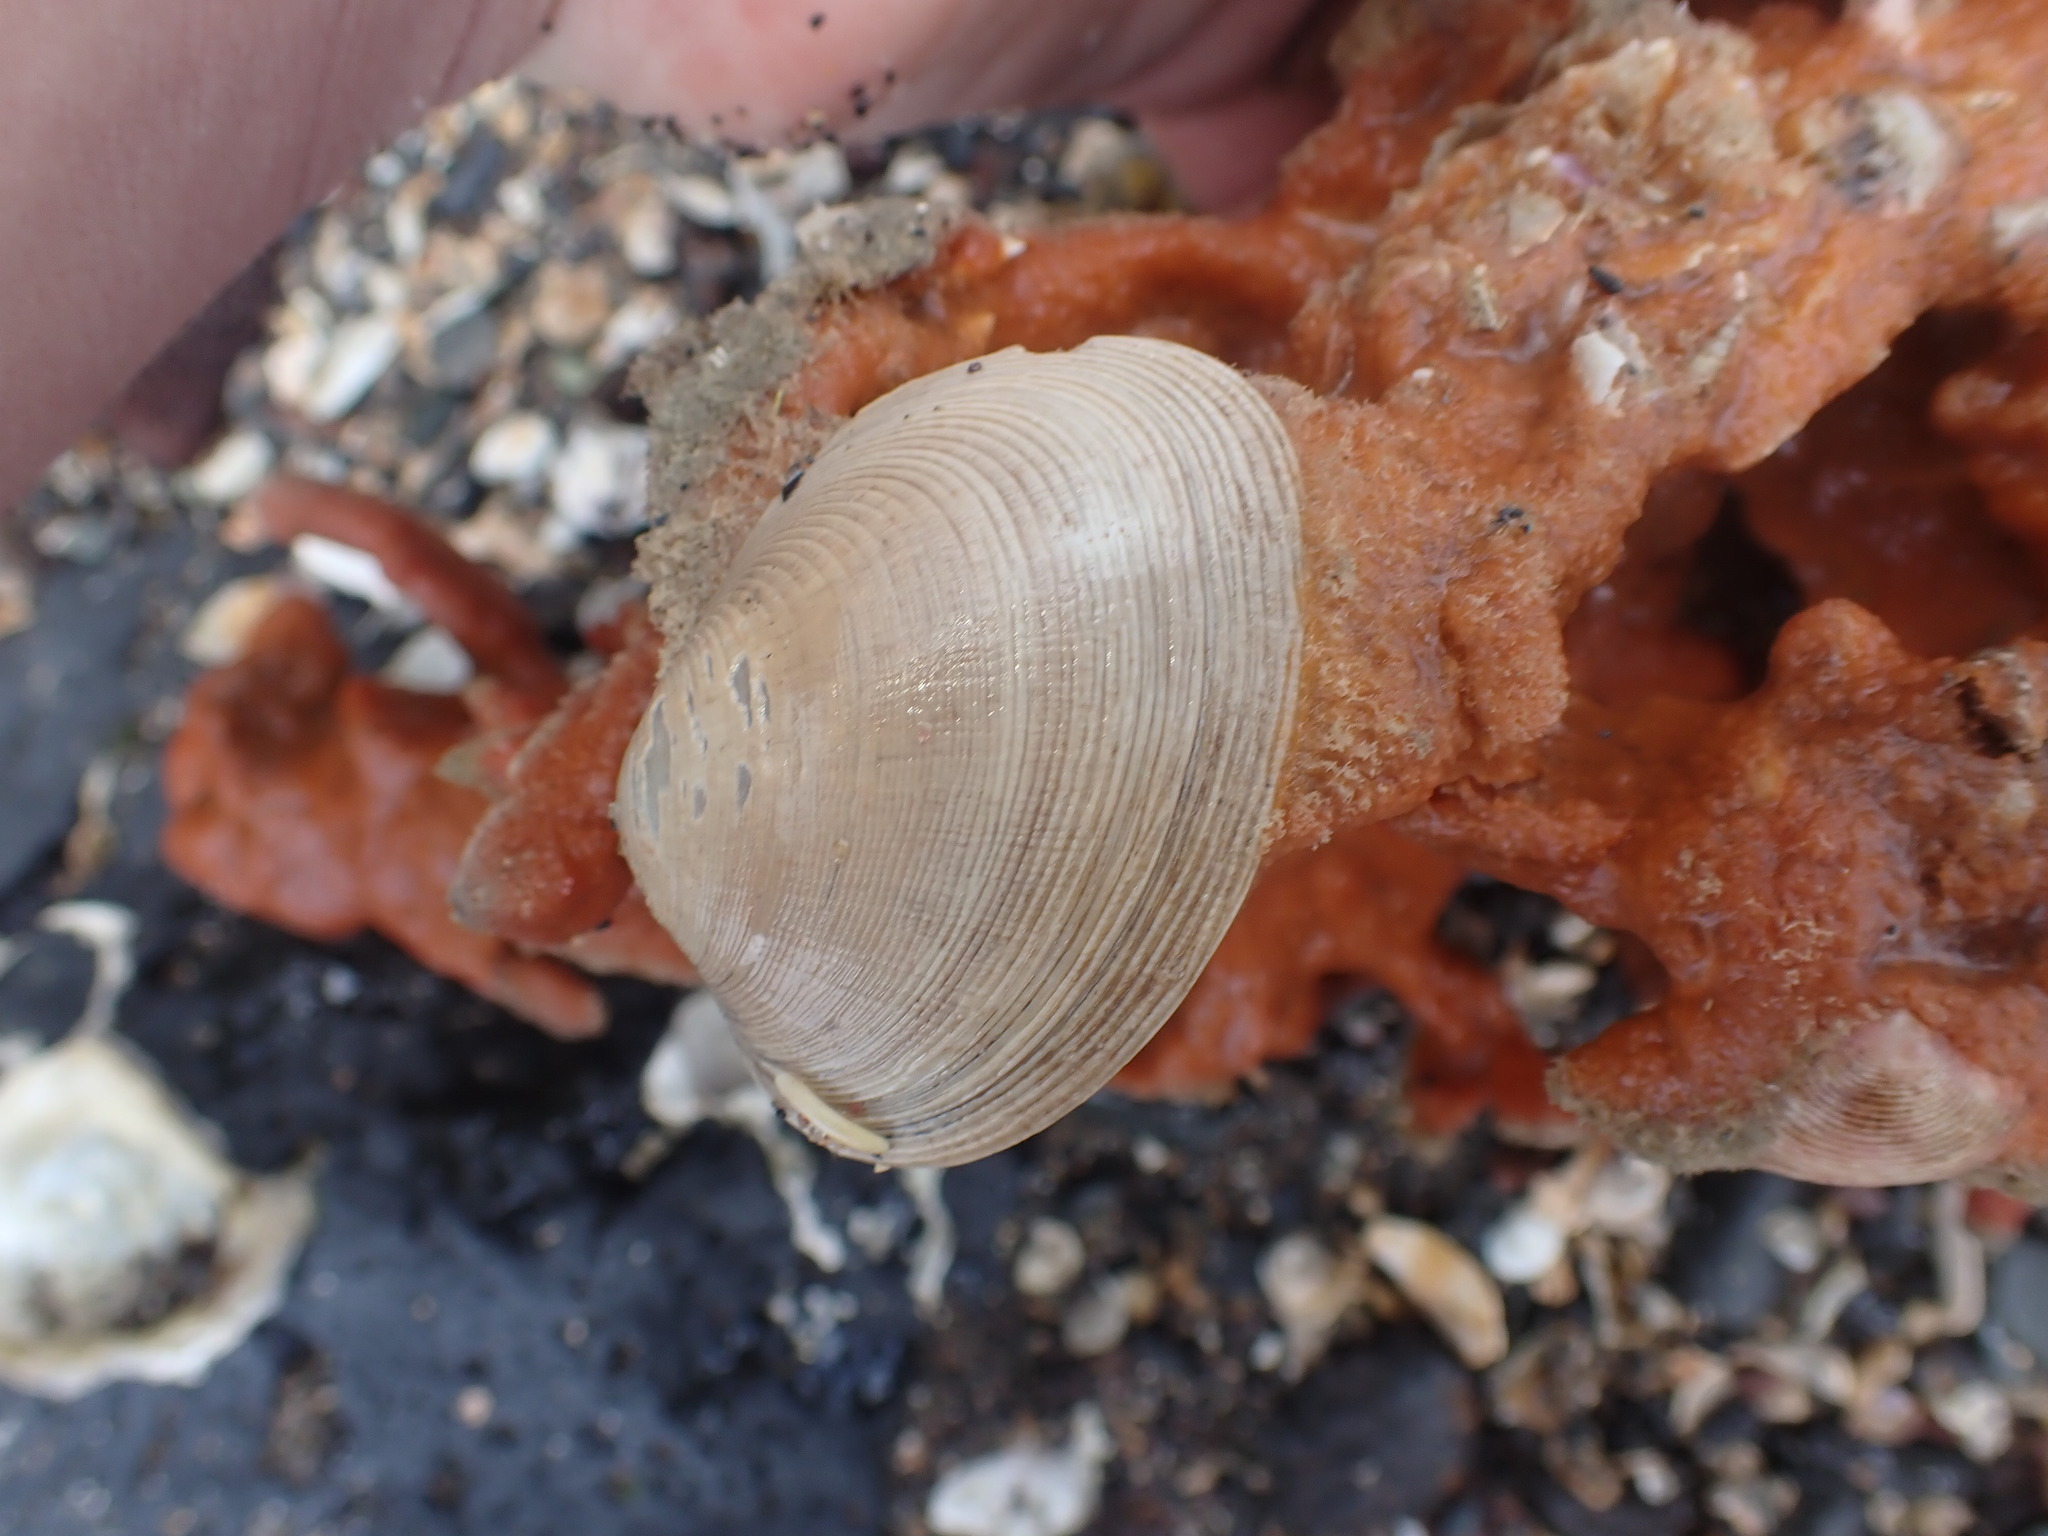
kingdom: Animalia
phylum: Mollusca
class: Bivalvia
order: Venerida
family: Veneridae
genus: Venerupis
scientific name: Venerupis largillierti
